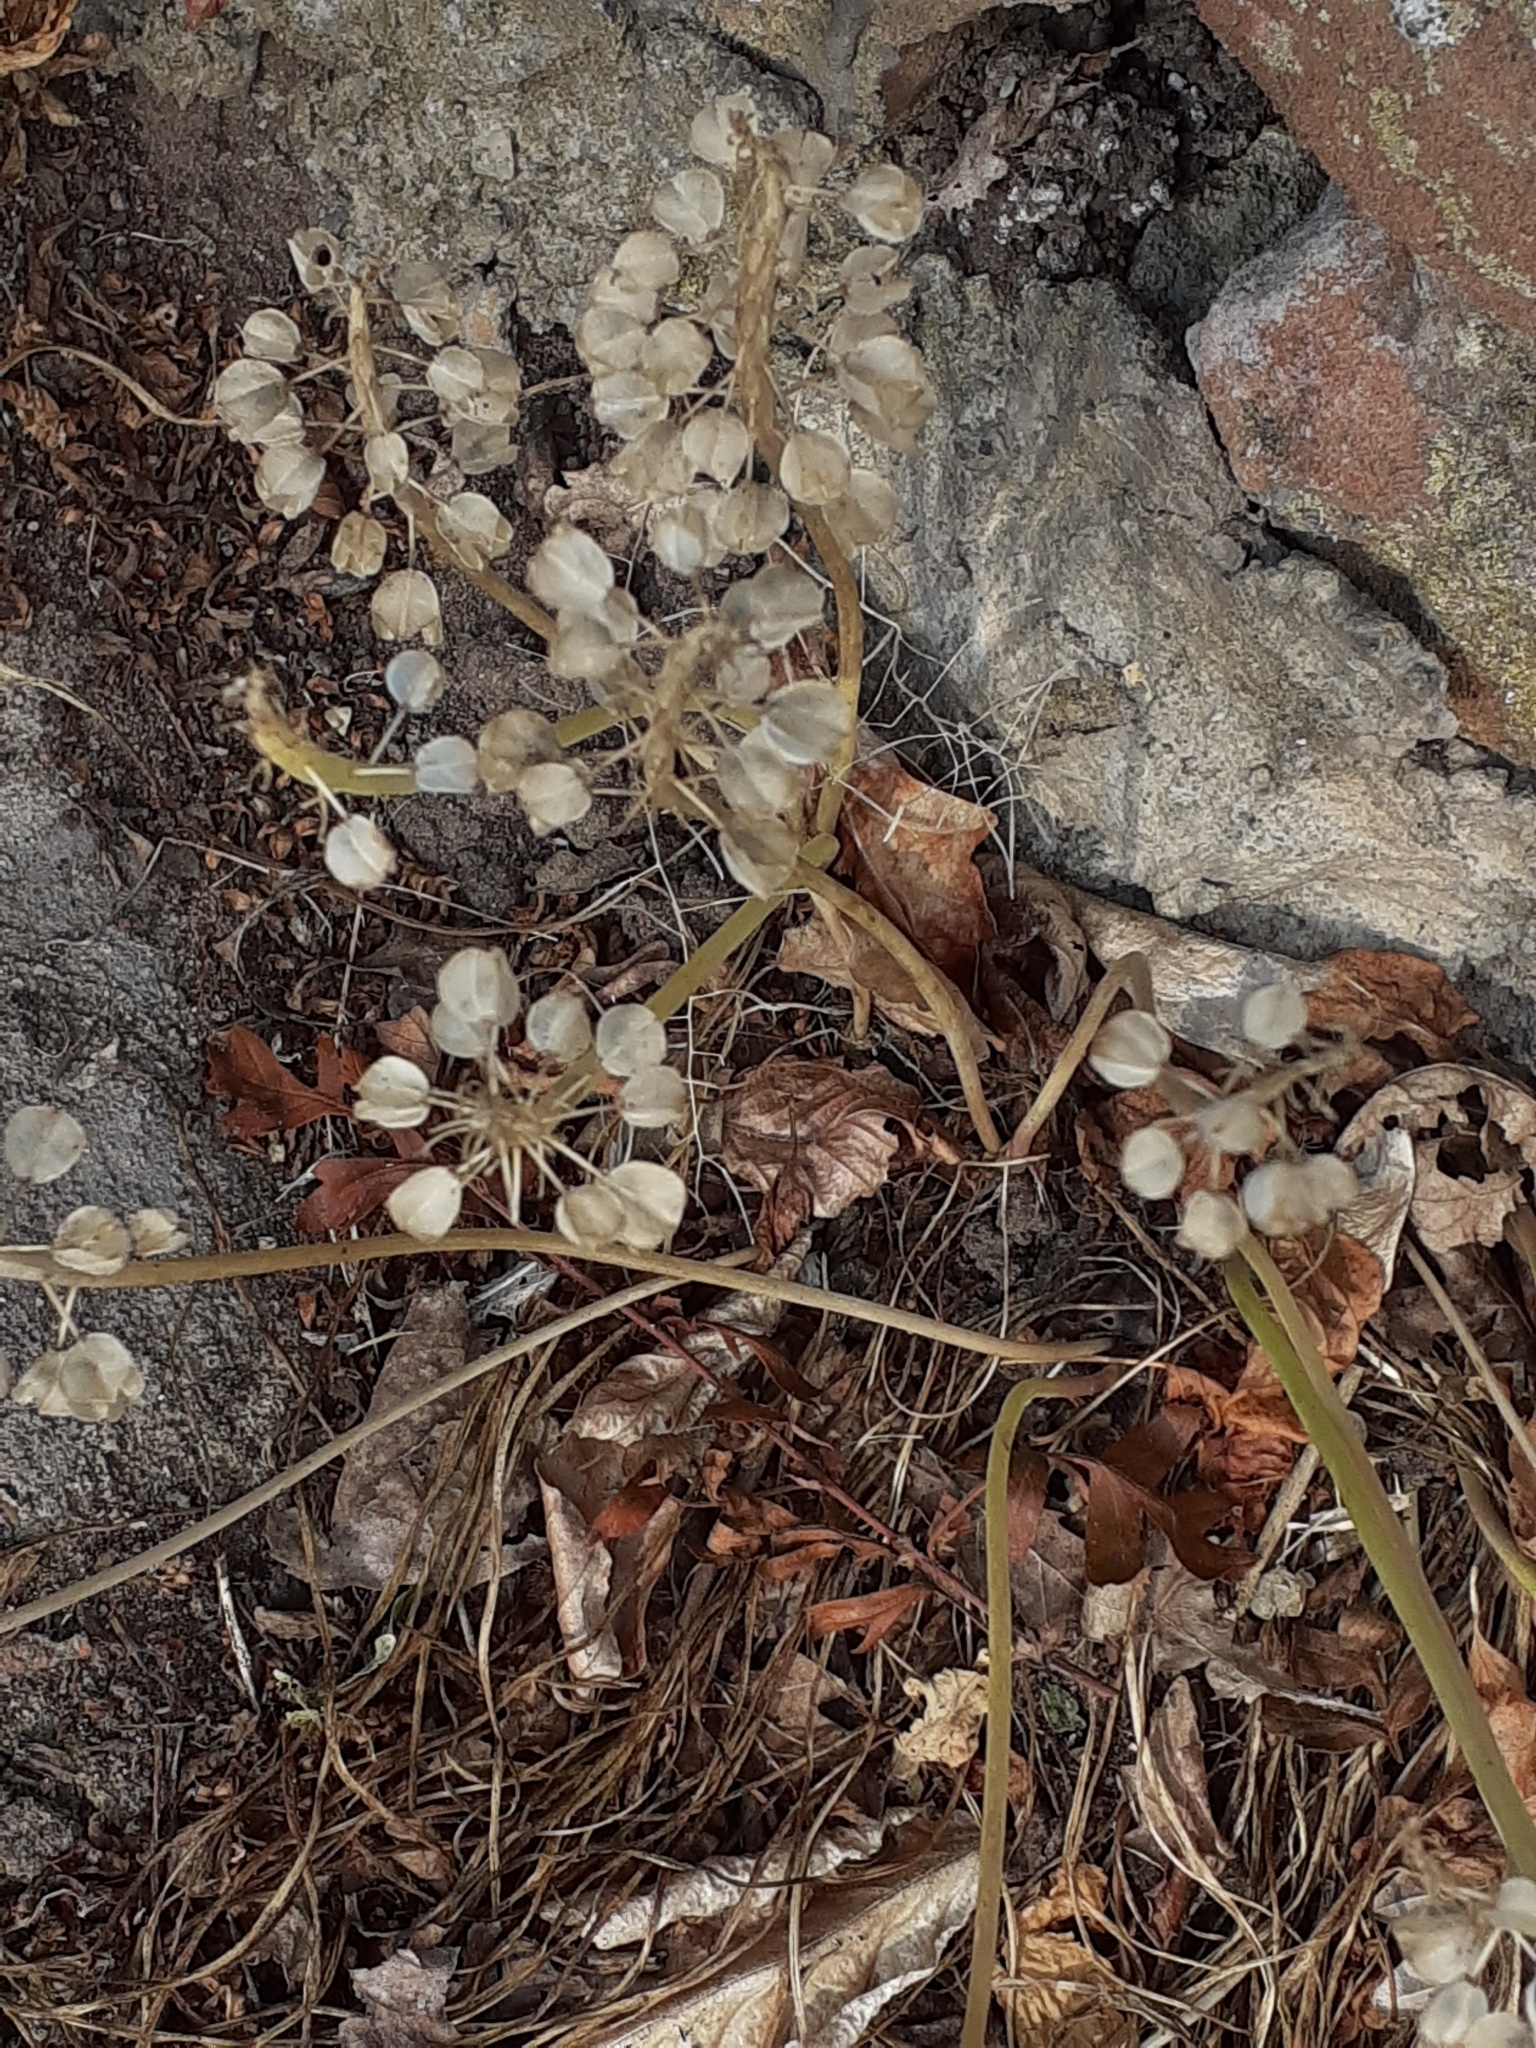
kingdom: Plantae
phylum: Tracheophyta
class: Liliopsida
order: Asparagales
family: Asparagaceae
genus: Muscari
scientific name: Muscari neglectum
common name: Grape-hyacinth
